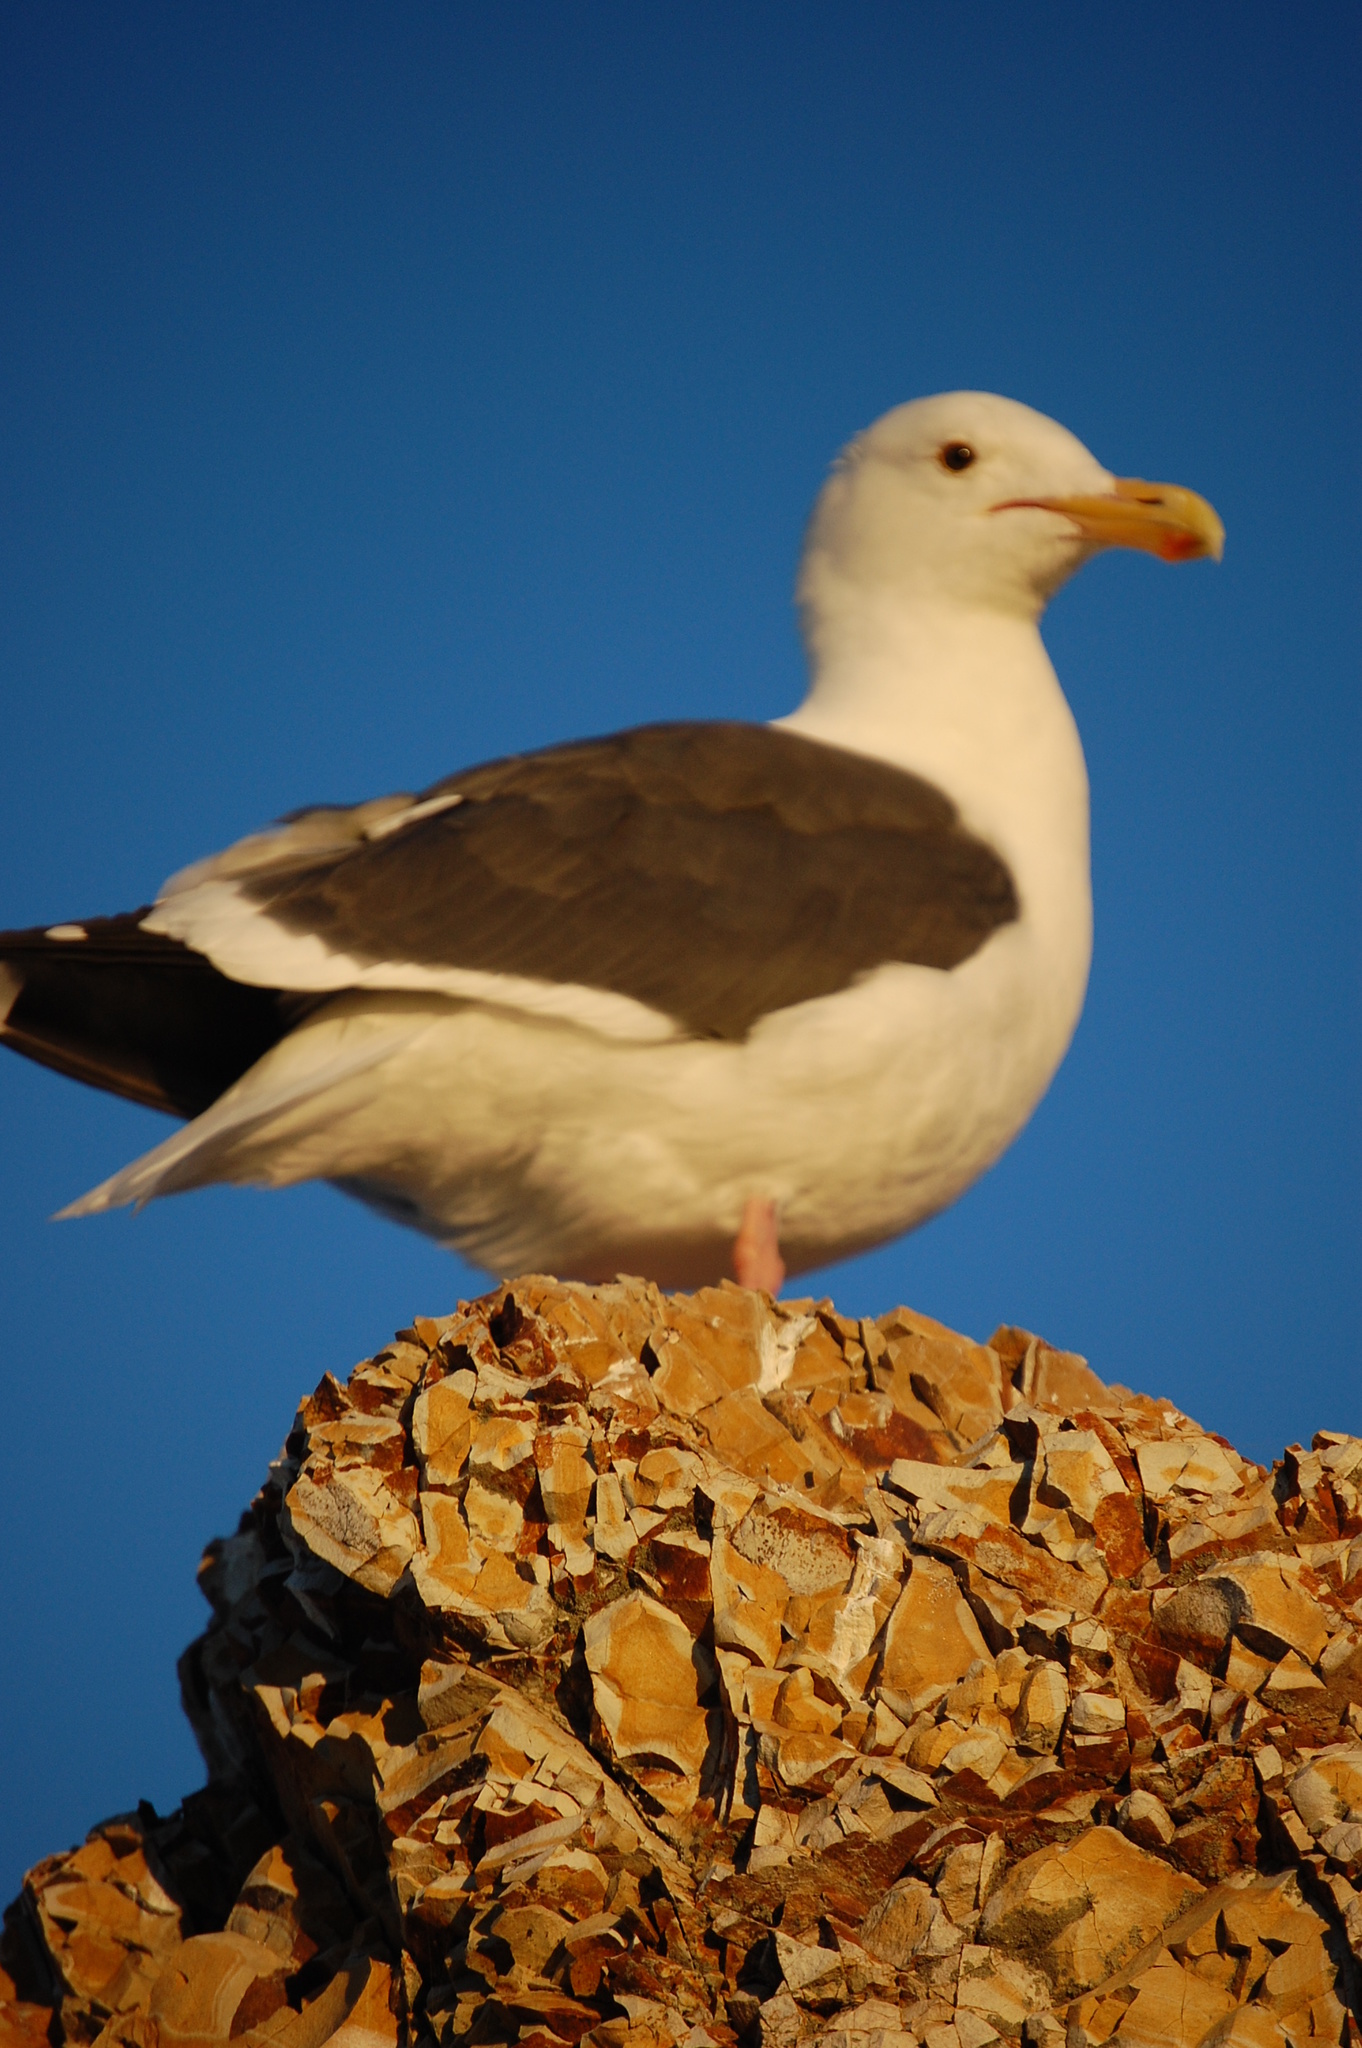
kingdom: Animalia
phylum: Chordata
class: Aves
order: Charadriiformes
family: Laridae
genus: Larus
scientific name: Larus occidentalis
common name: Western gull
